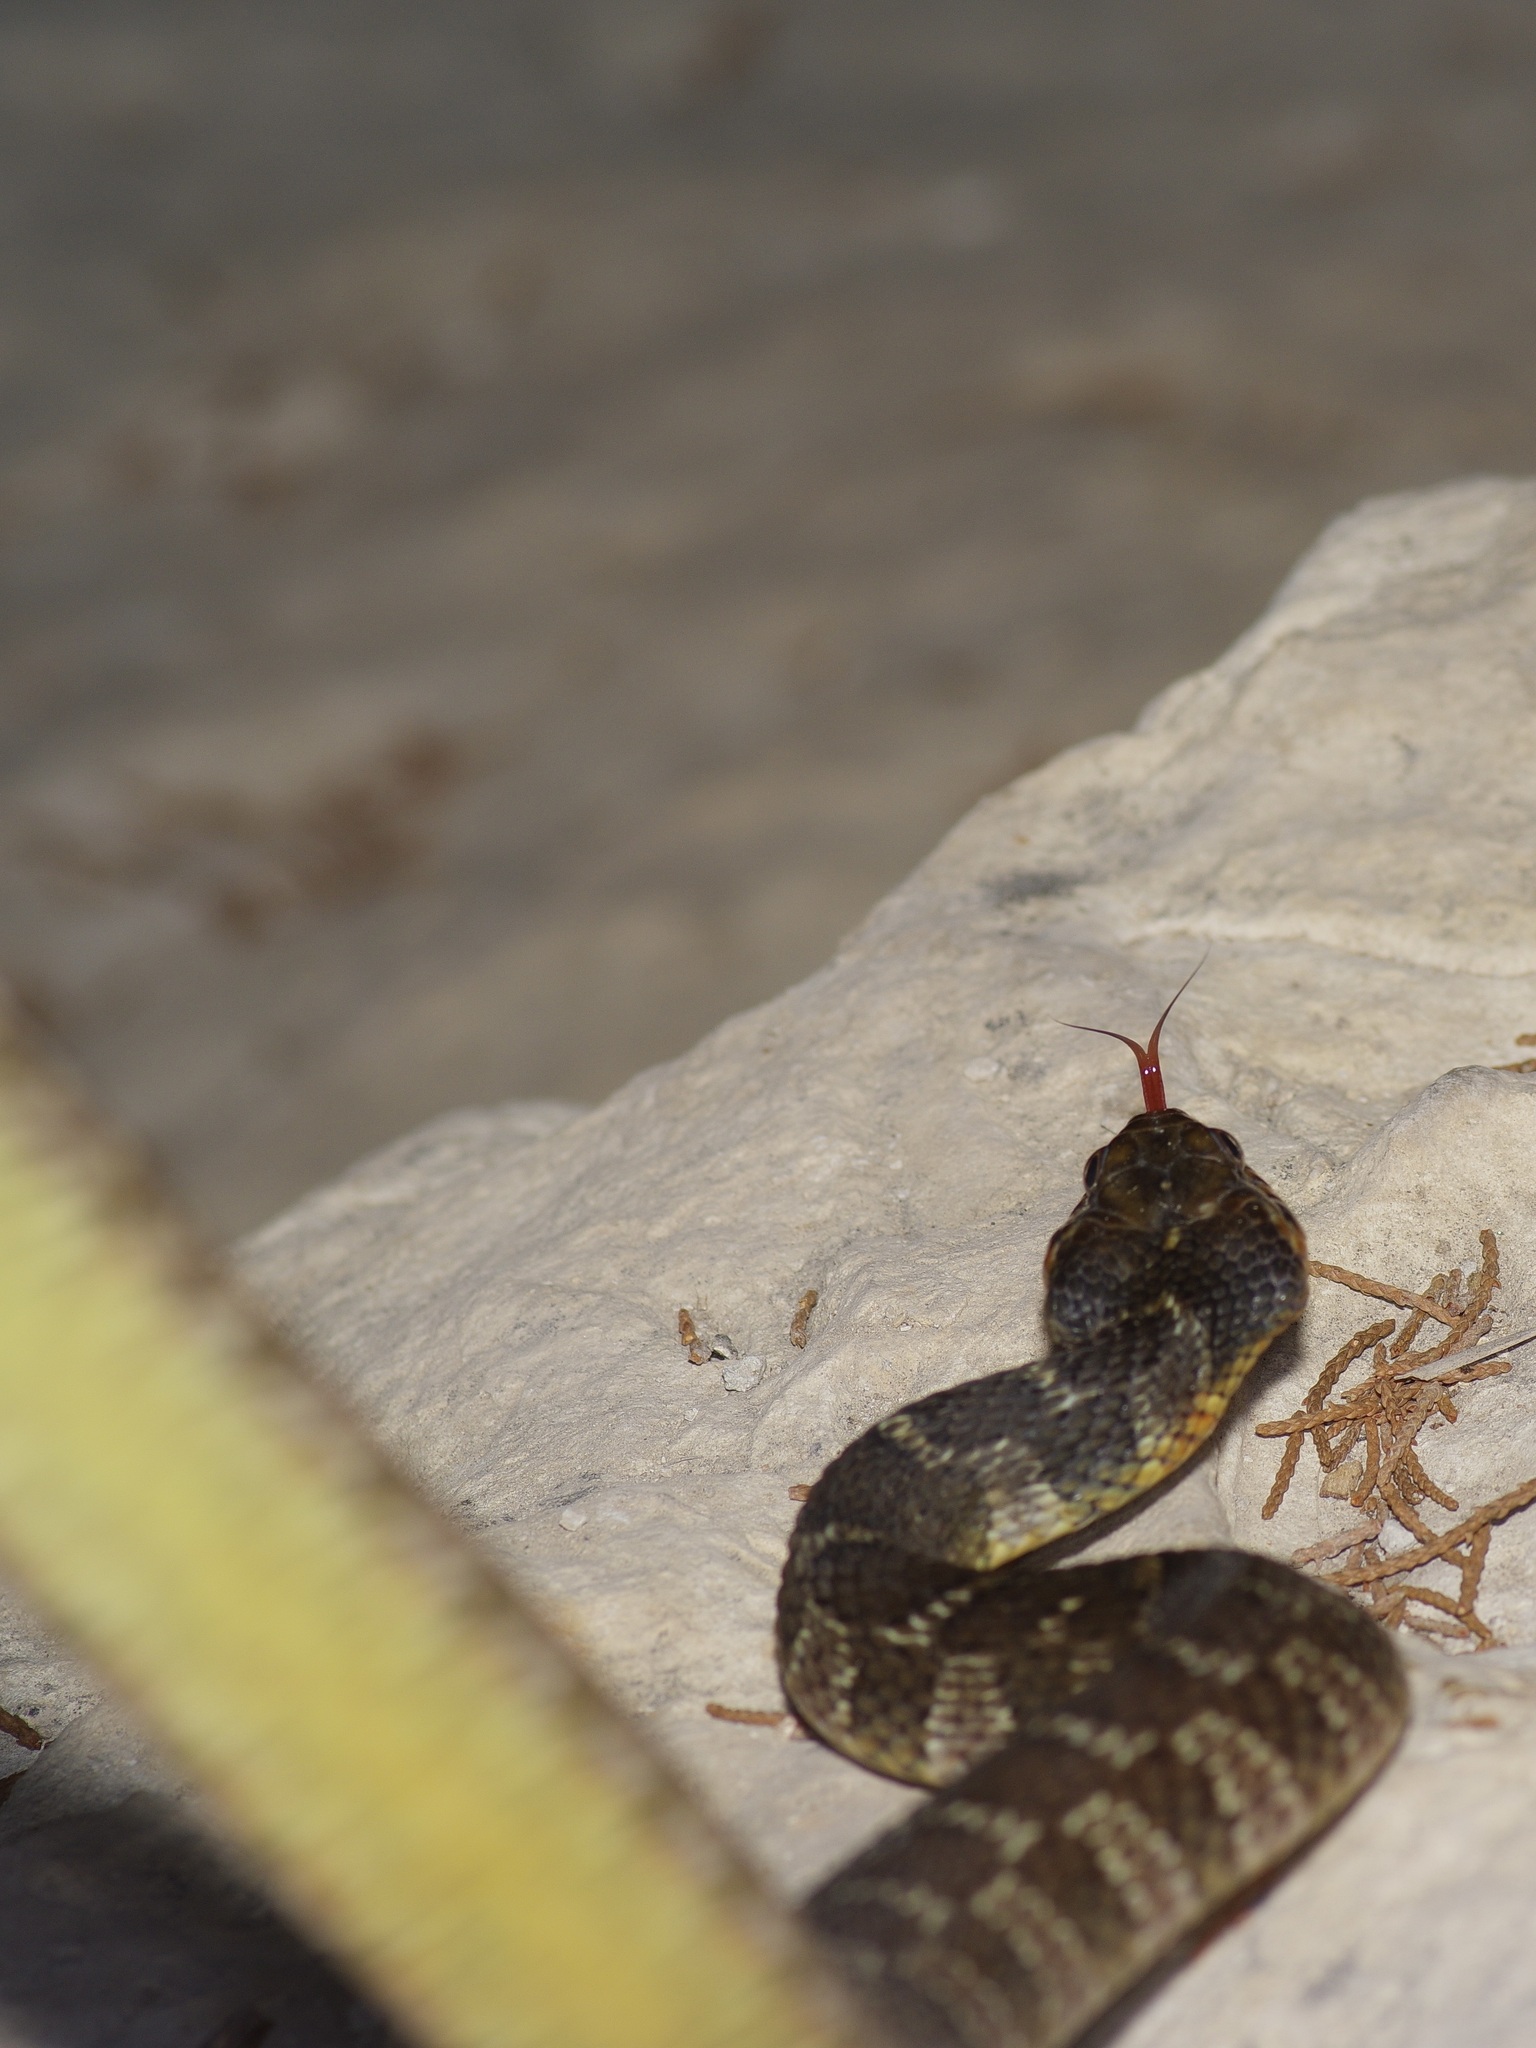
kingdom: Animalia
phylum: Chordata
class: Squamata
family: Colubridae
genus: Nerodia
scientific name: Nerodia erythrogaster
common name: Plainbelly water snake
